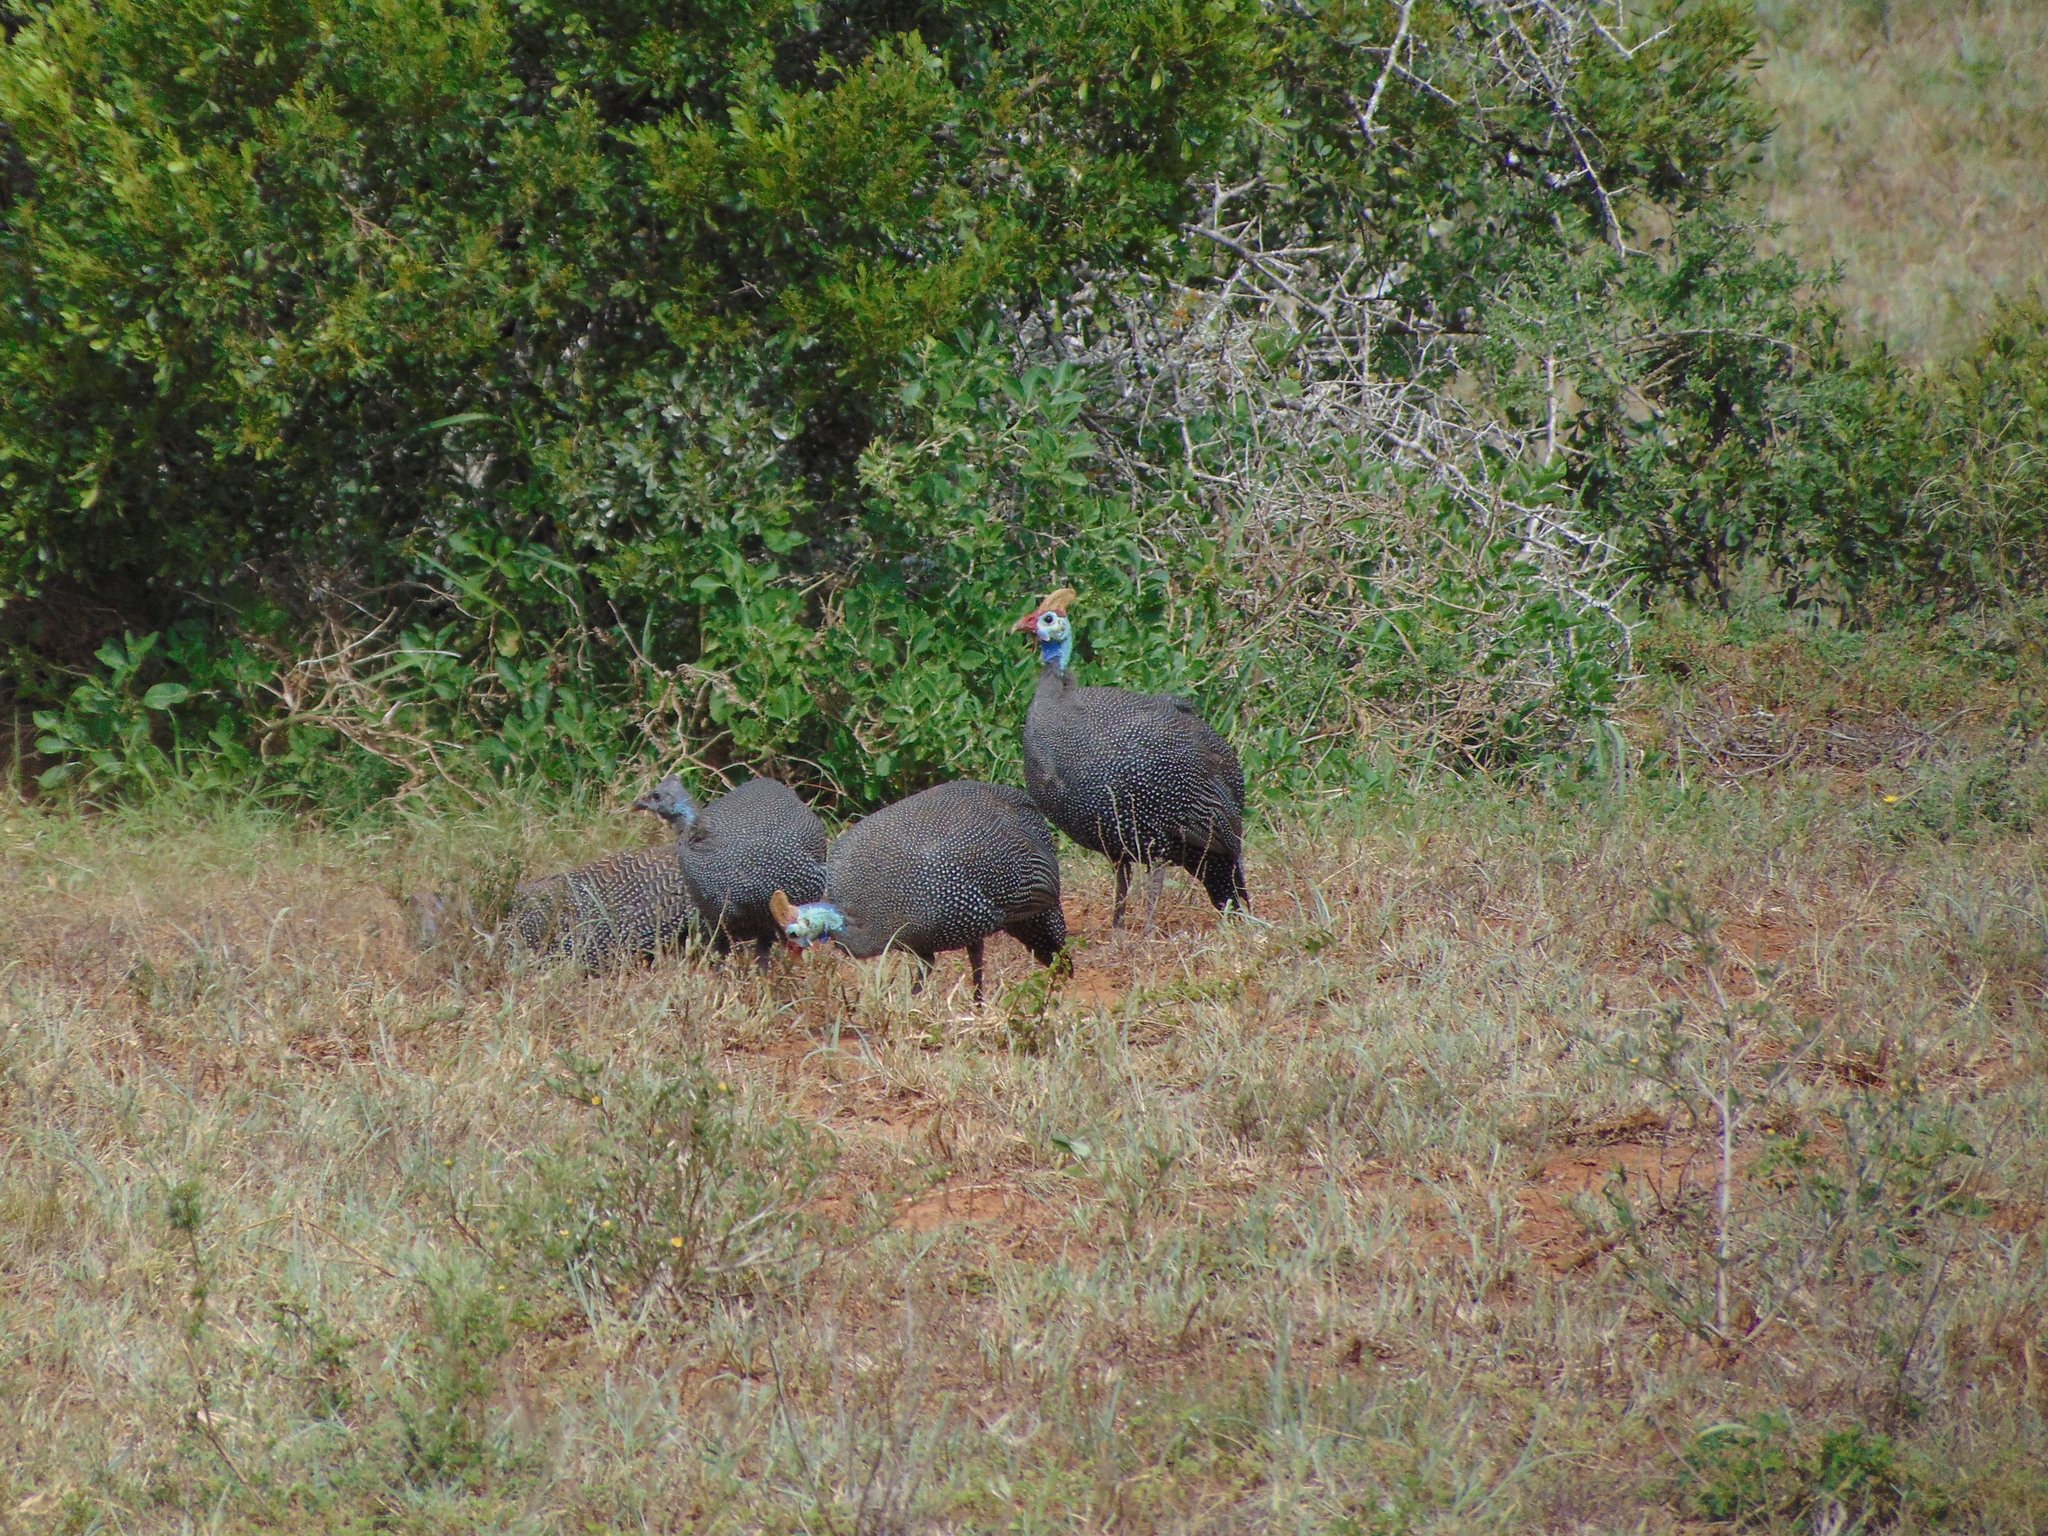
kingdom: Animalia
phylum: Chordata
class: Aves
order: Galliformes
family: Numididae
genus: Numida
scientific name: Numida meleagris
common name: Helmeted guineafowl
